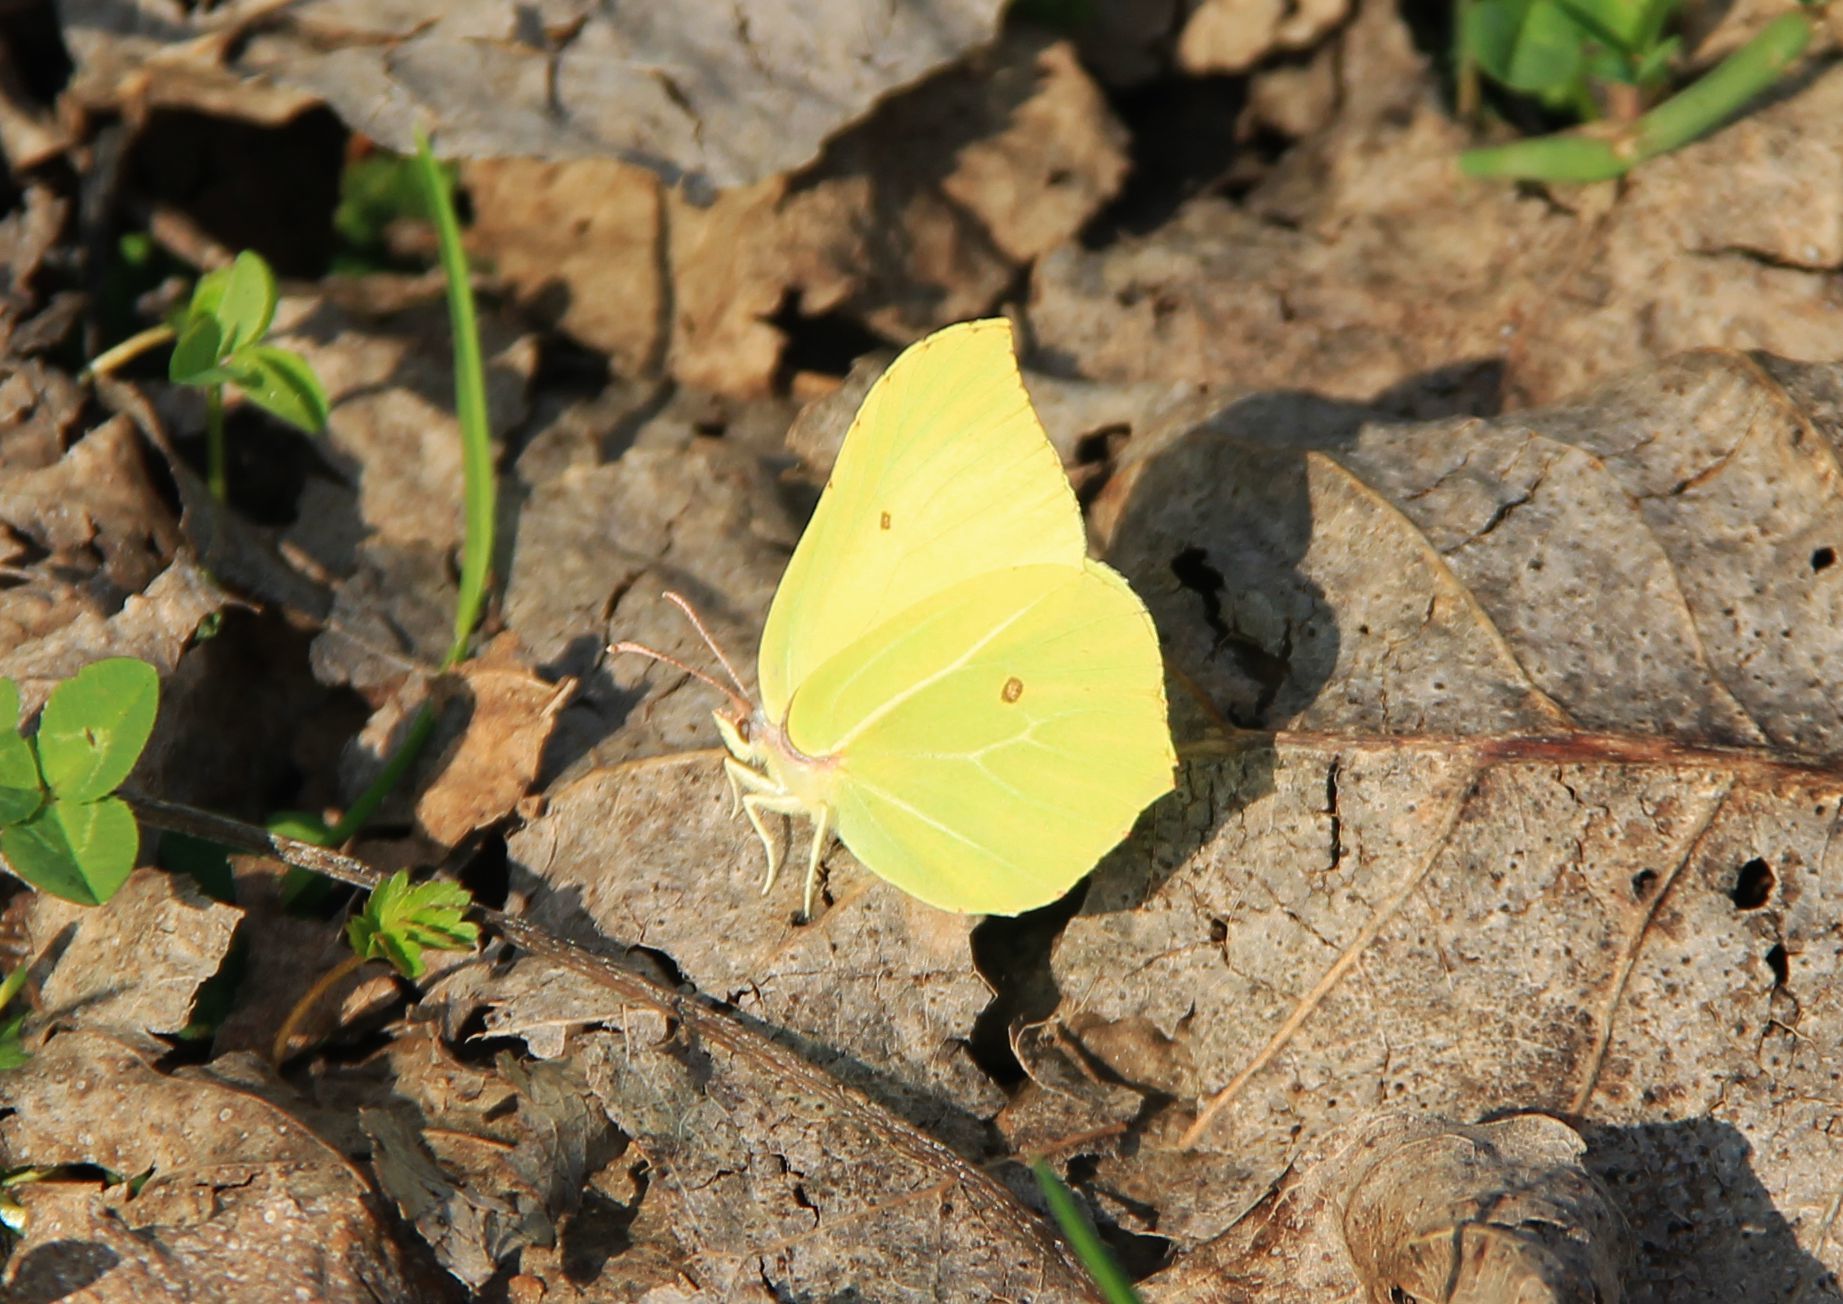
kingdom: Animalia
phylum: Arthropoda
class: Insecta
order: Lepidoptera
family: Pieridae
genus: Gonepteryx
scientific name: Gonepteryx rhamni
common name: Brimstone
